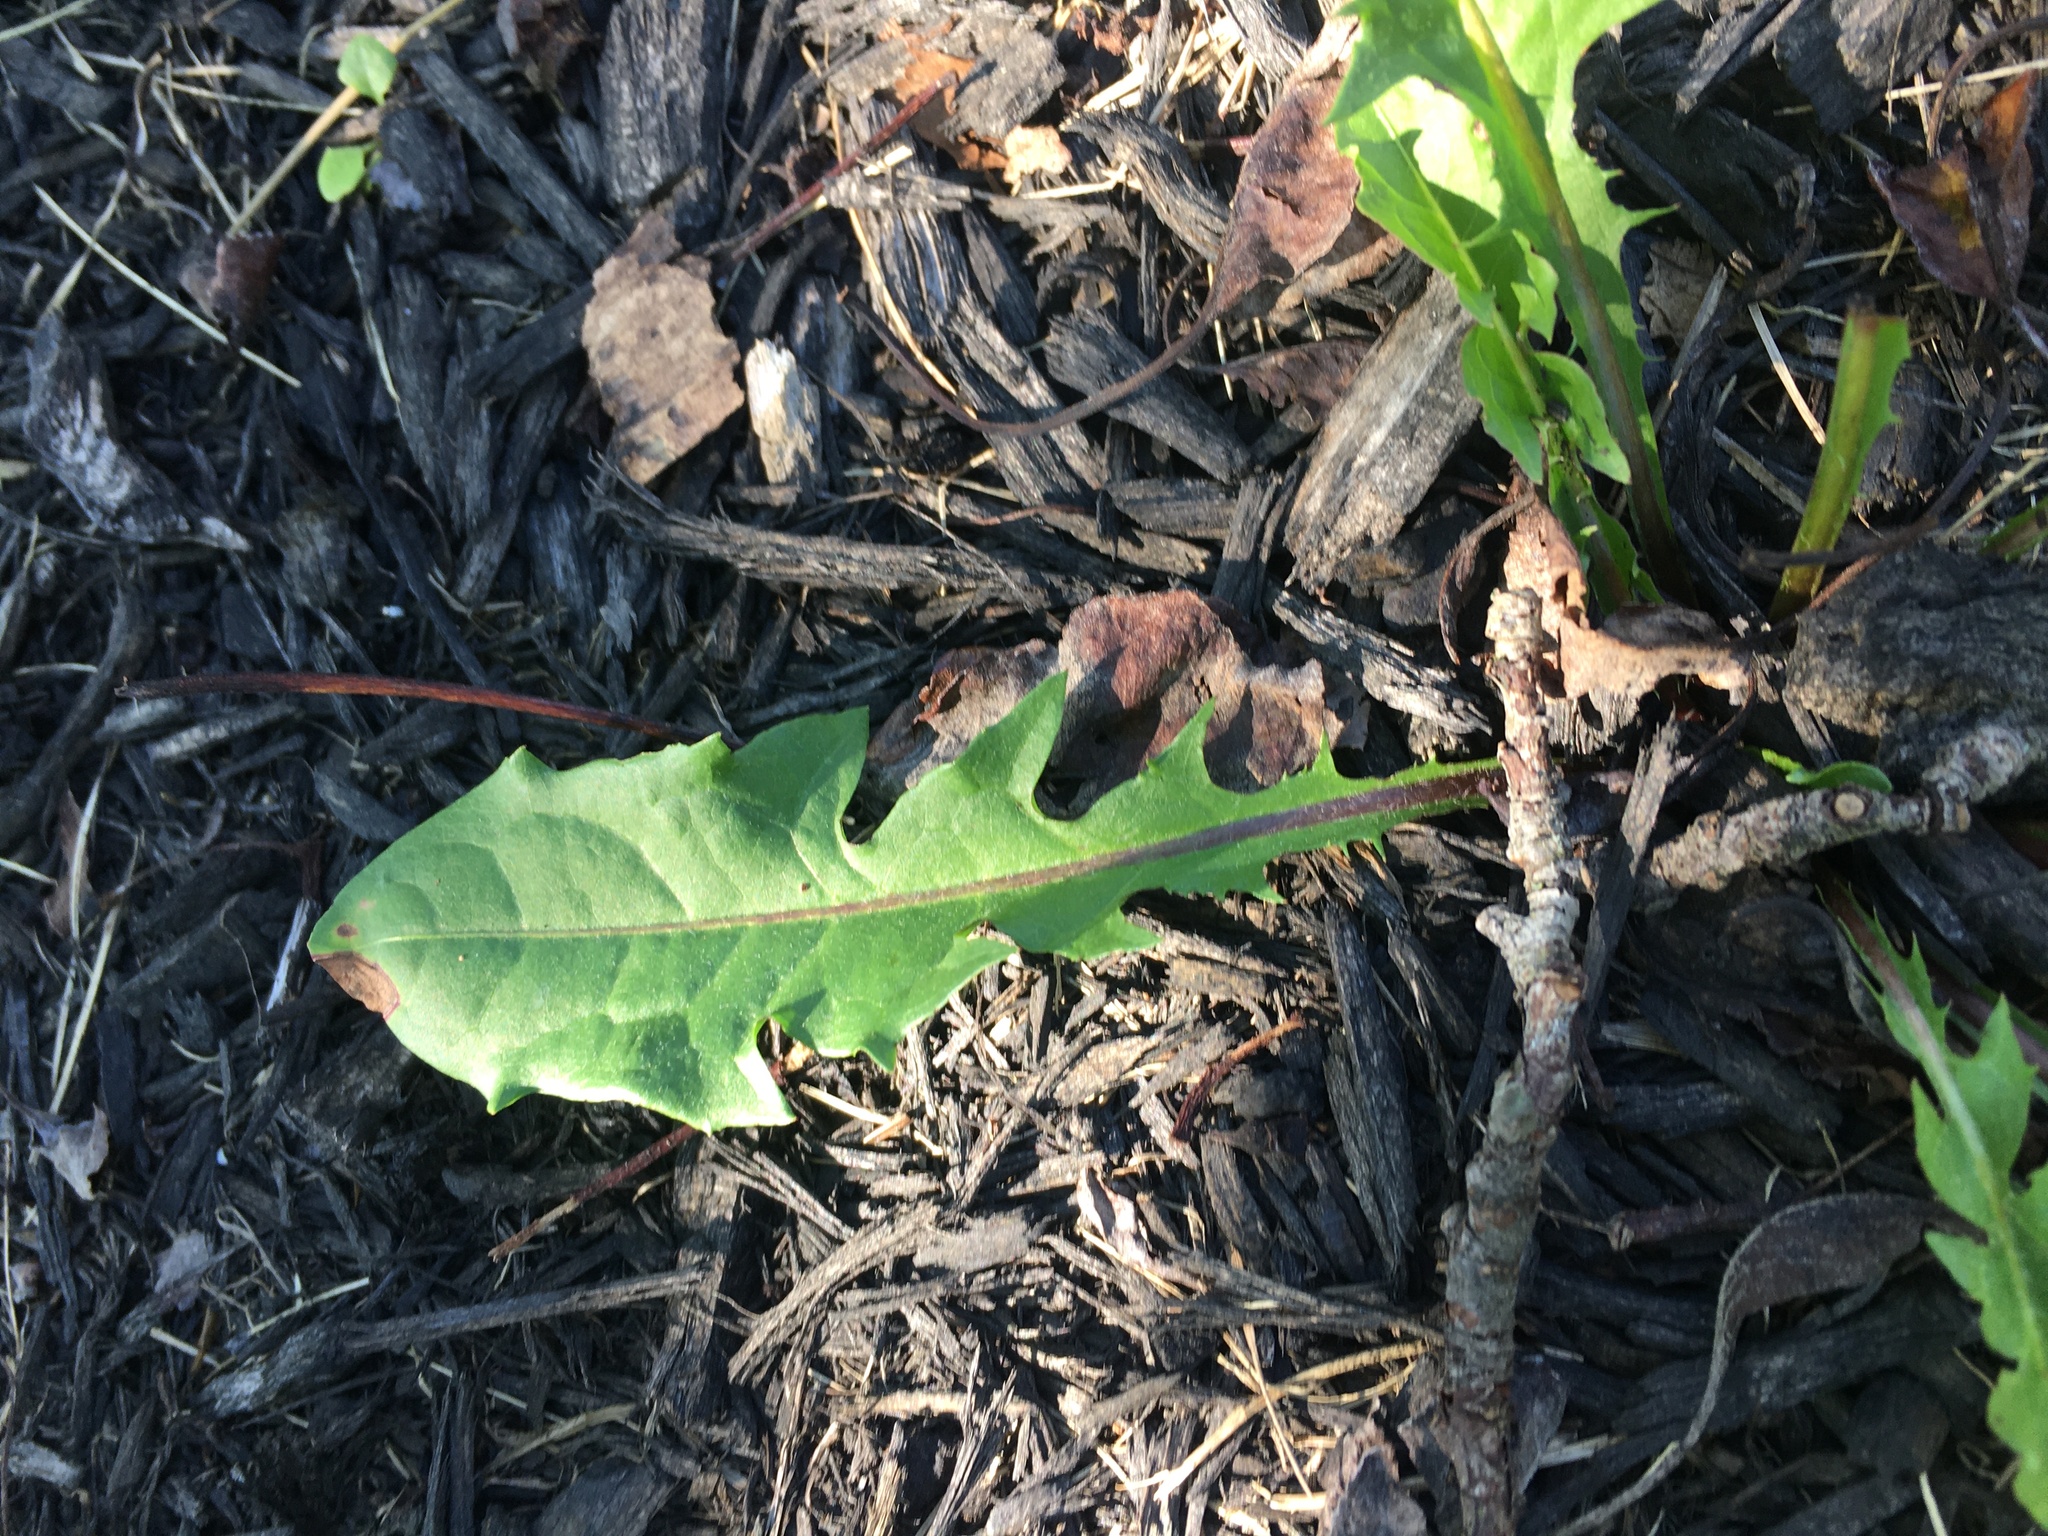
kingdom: Plantae
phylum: Tracheophyta
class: Magnoliopsida
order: Asterales
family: Asteraceae
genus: Taraxacum
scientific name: Taraxacum officinale
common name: Common dandelion
